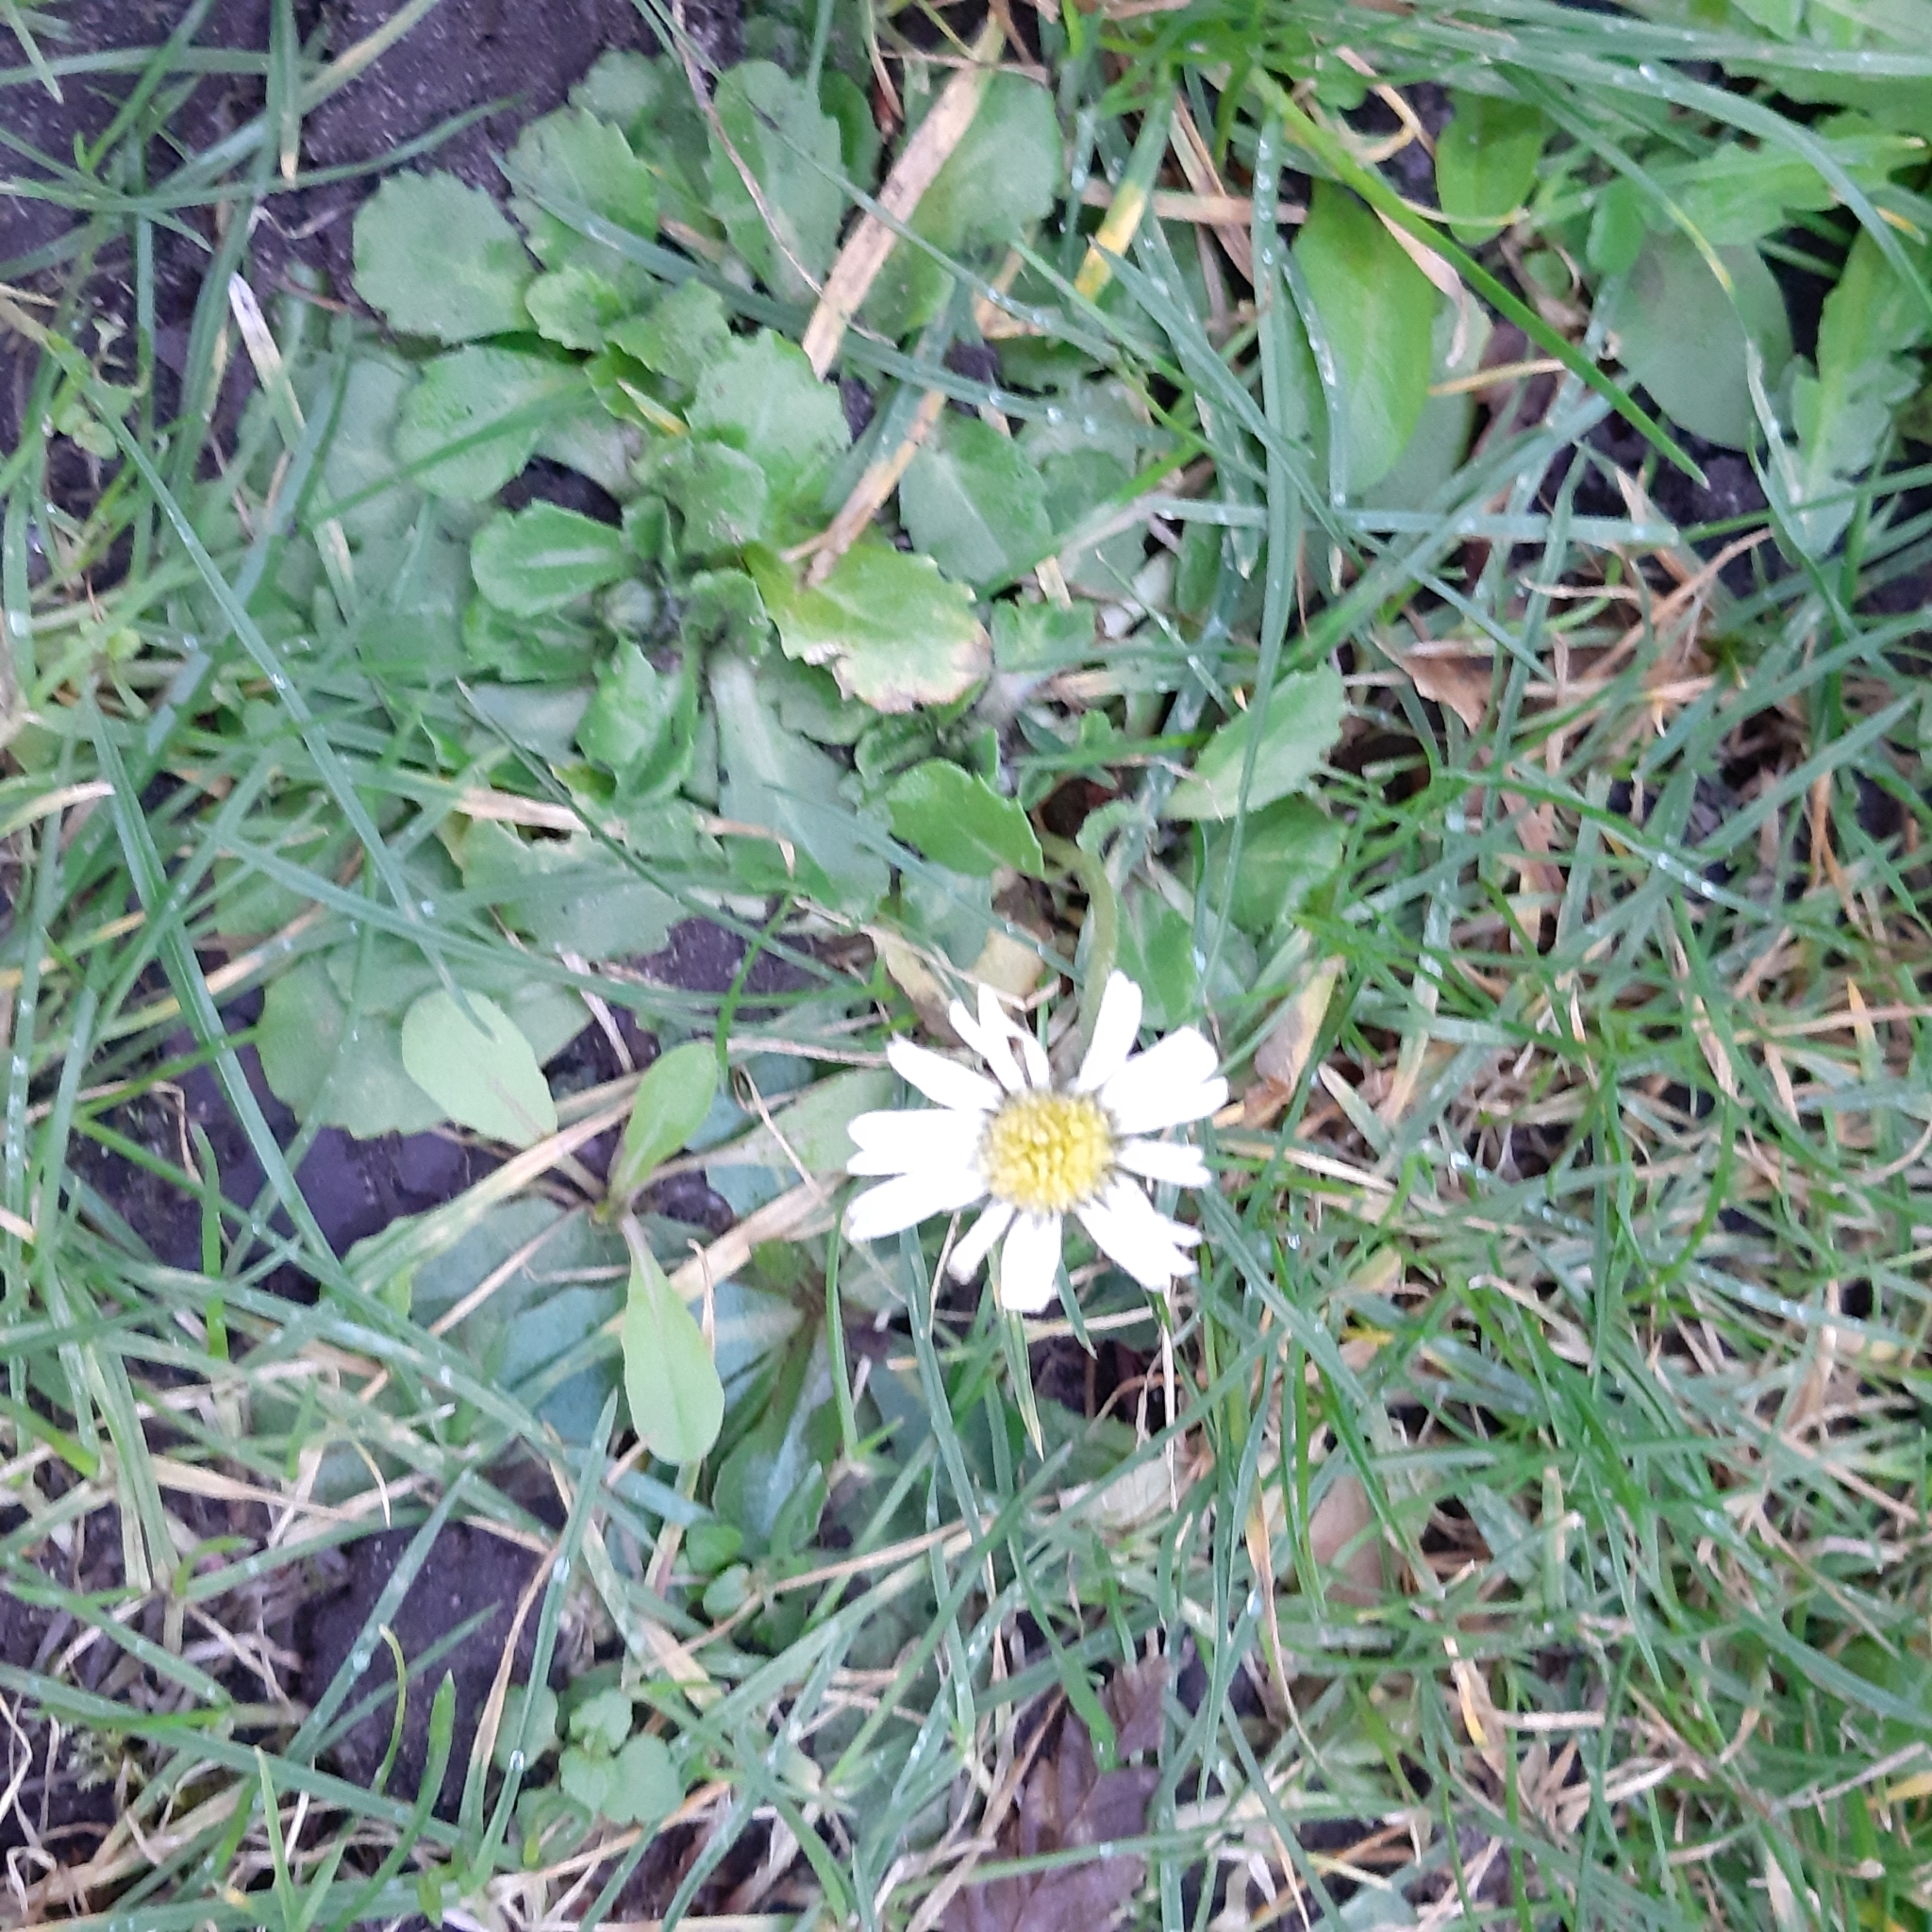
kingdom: Plantae
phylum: Tracheophyta
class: Magnoliopsida
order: Asterales
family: Asteraceae
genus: Bellis
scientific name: Bellis perennis
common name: Lawndaisy
